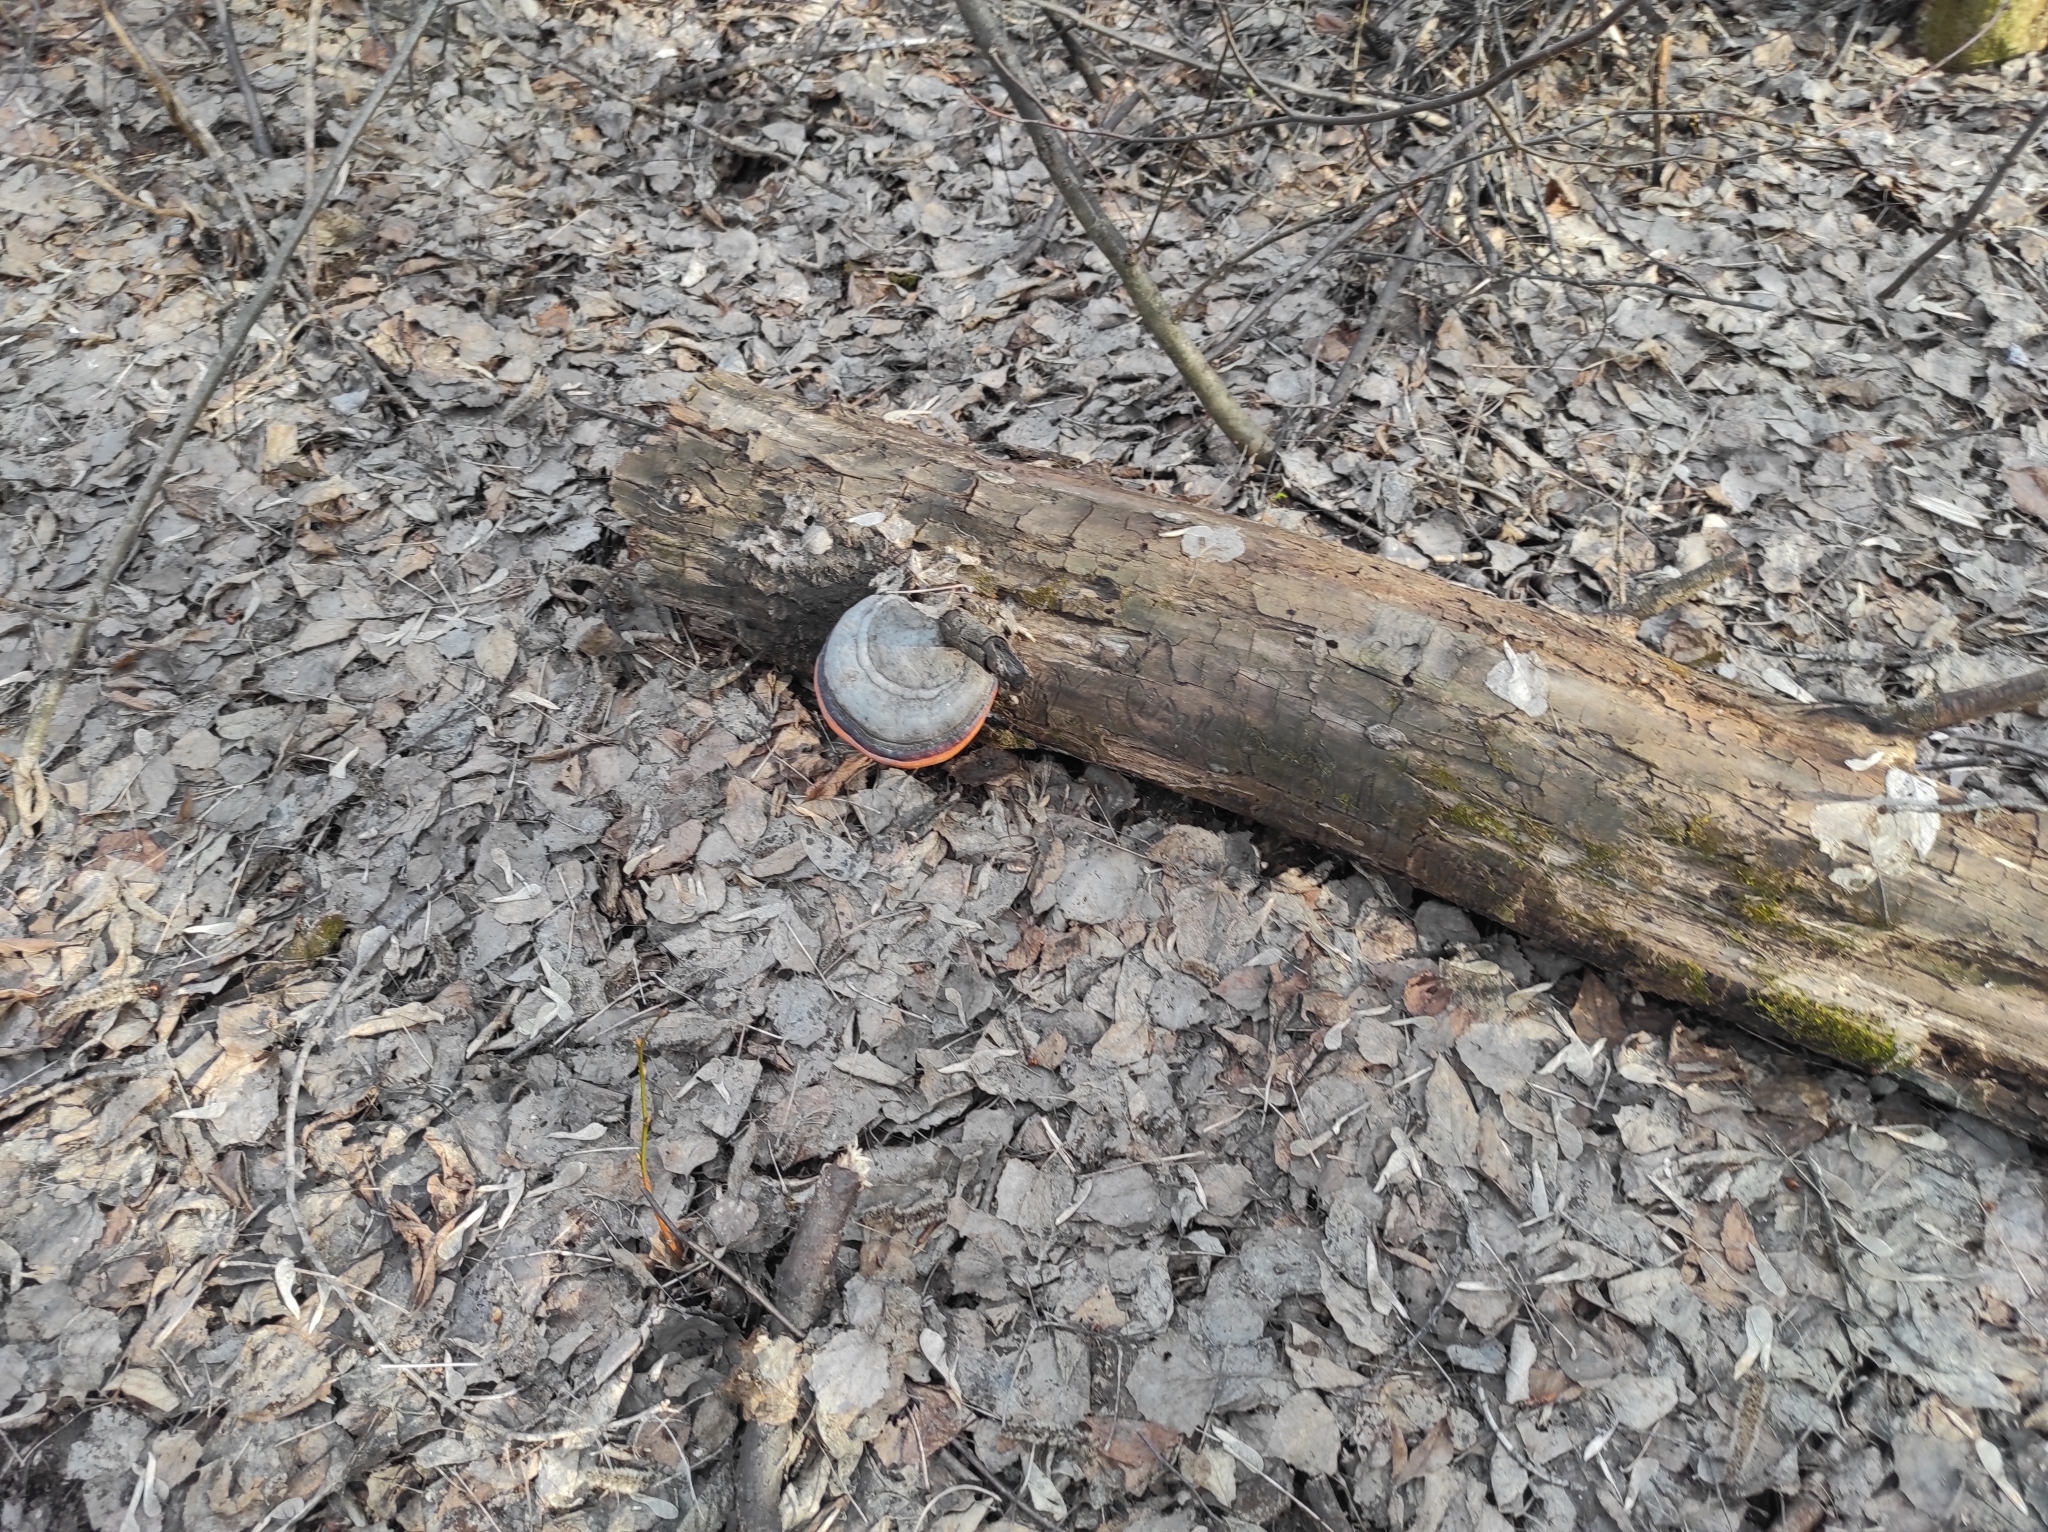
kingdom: Fungi
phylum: Basidiomycota
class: Agaricomycetes
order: Polyporales
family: Fomitopsidaceae
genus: Fomitopsis
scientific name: Fomitopsis pinicola
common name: Red-belted bracket
